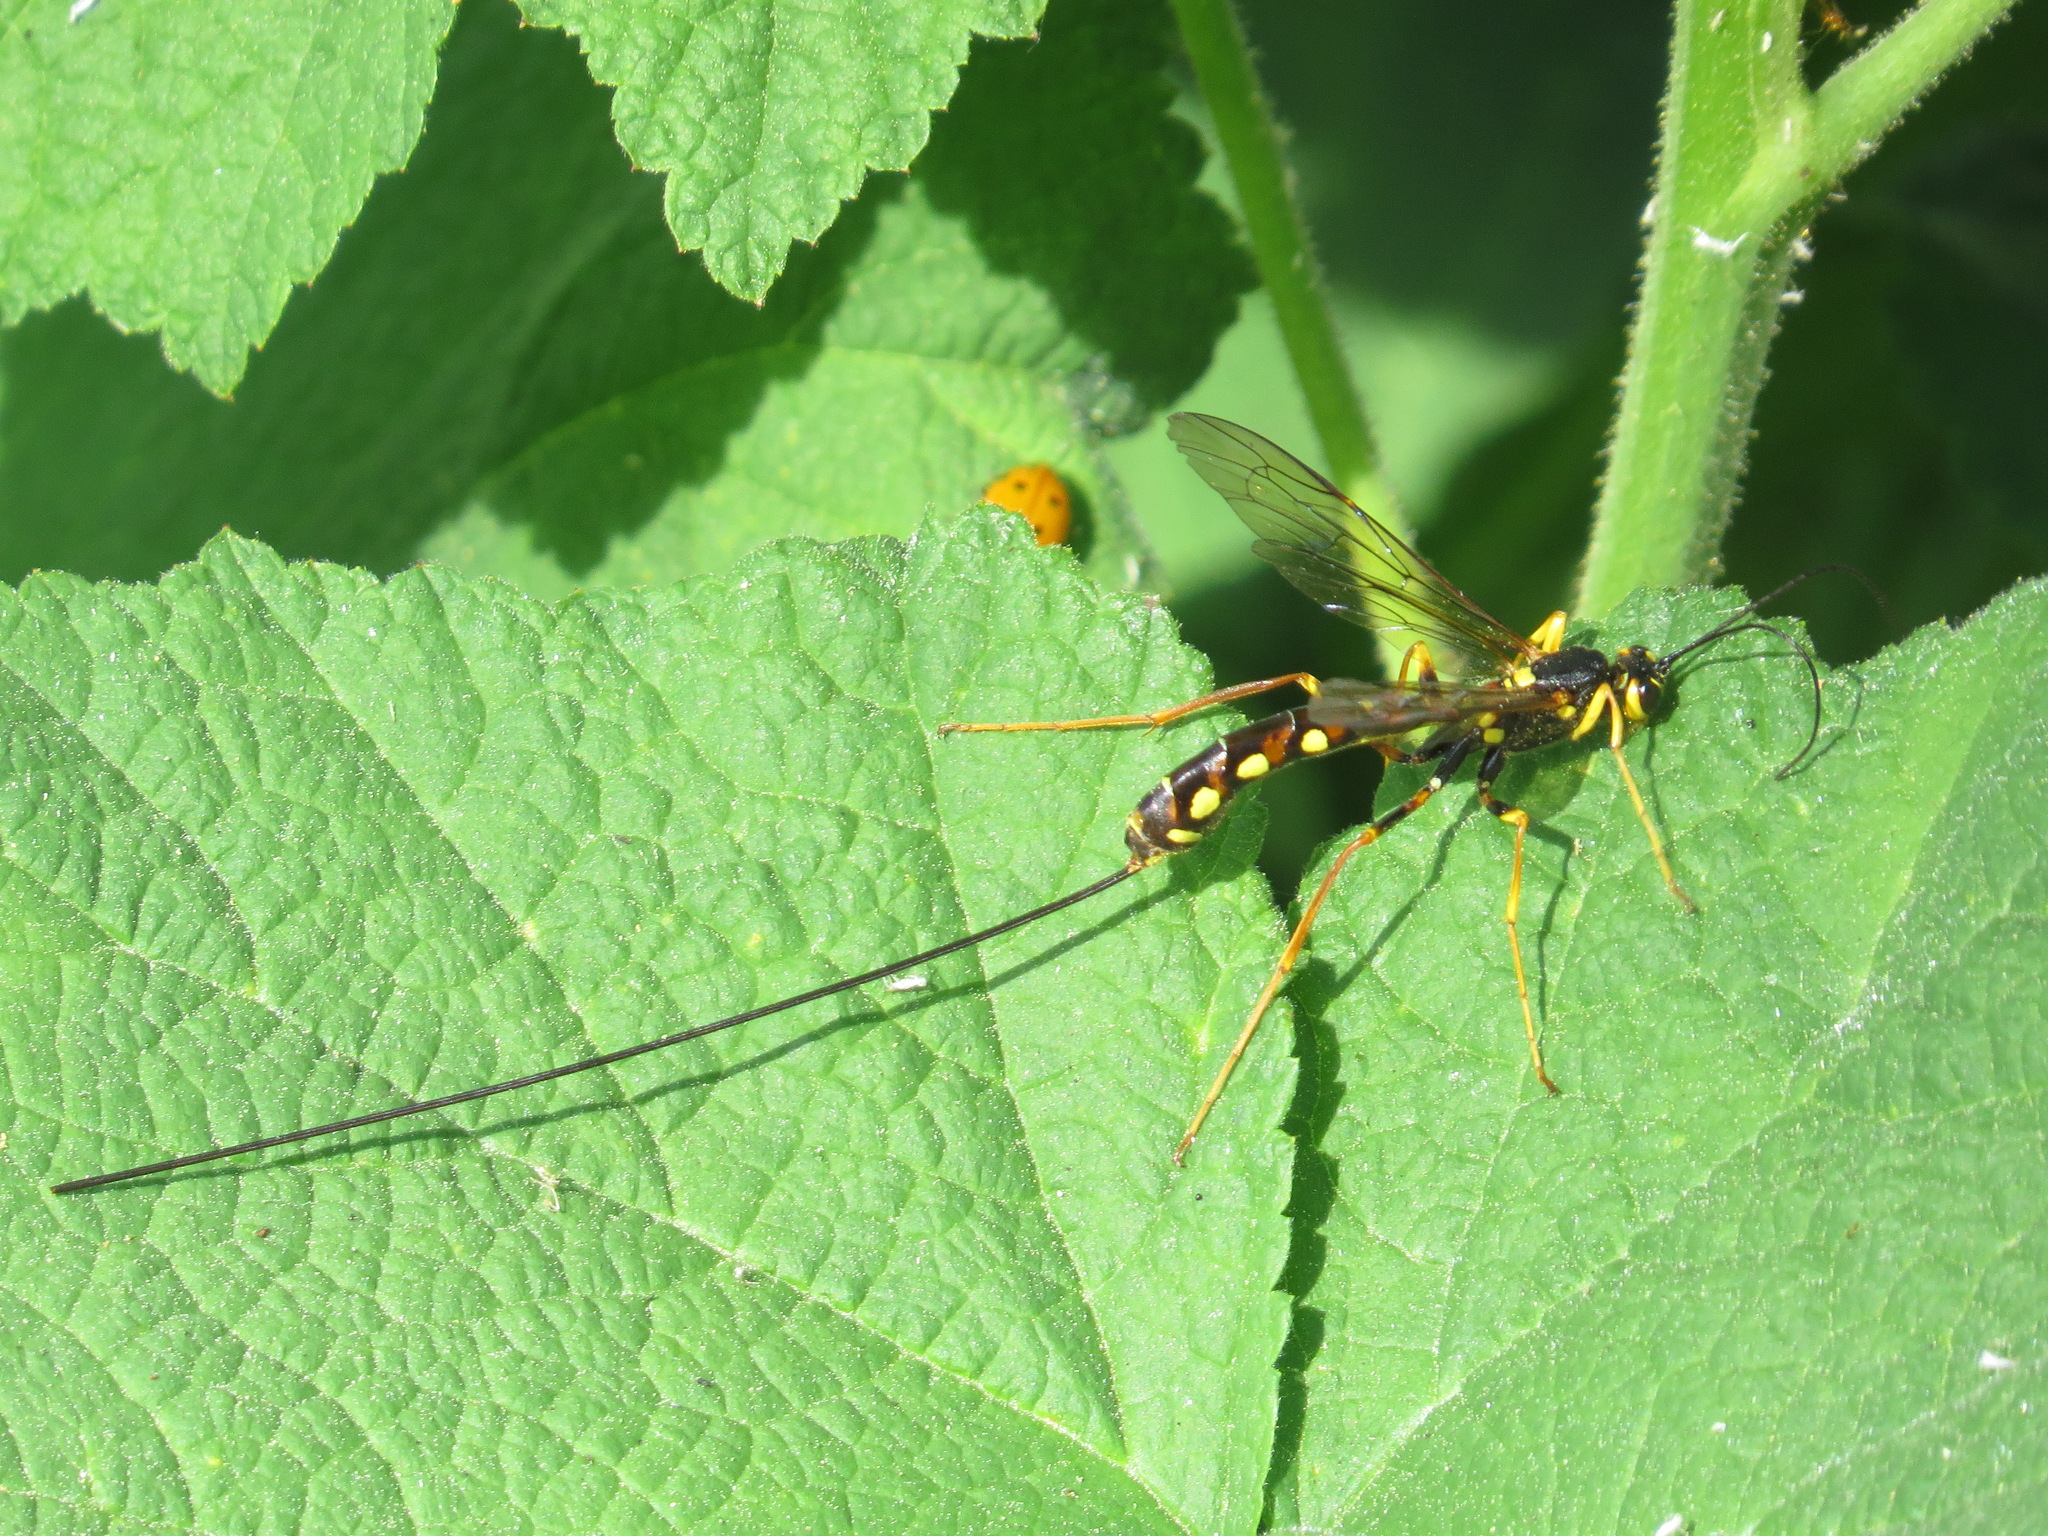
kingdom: Animalia
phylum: Arthropoda
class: Insecta
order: Hymenoptera
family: Ichneumonidae
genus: Megarhyssa
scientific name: Megarhyssa nortoni
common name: Norton's giant ichneumonid wasp
